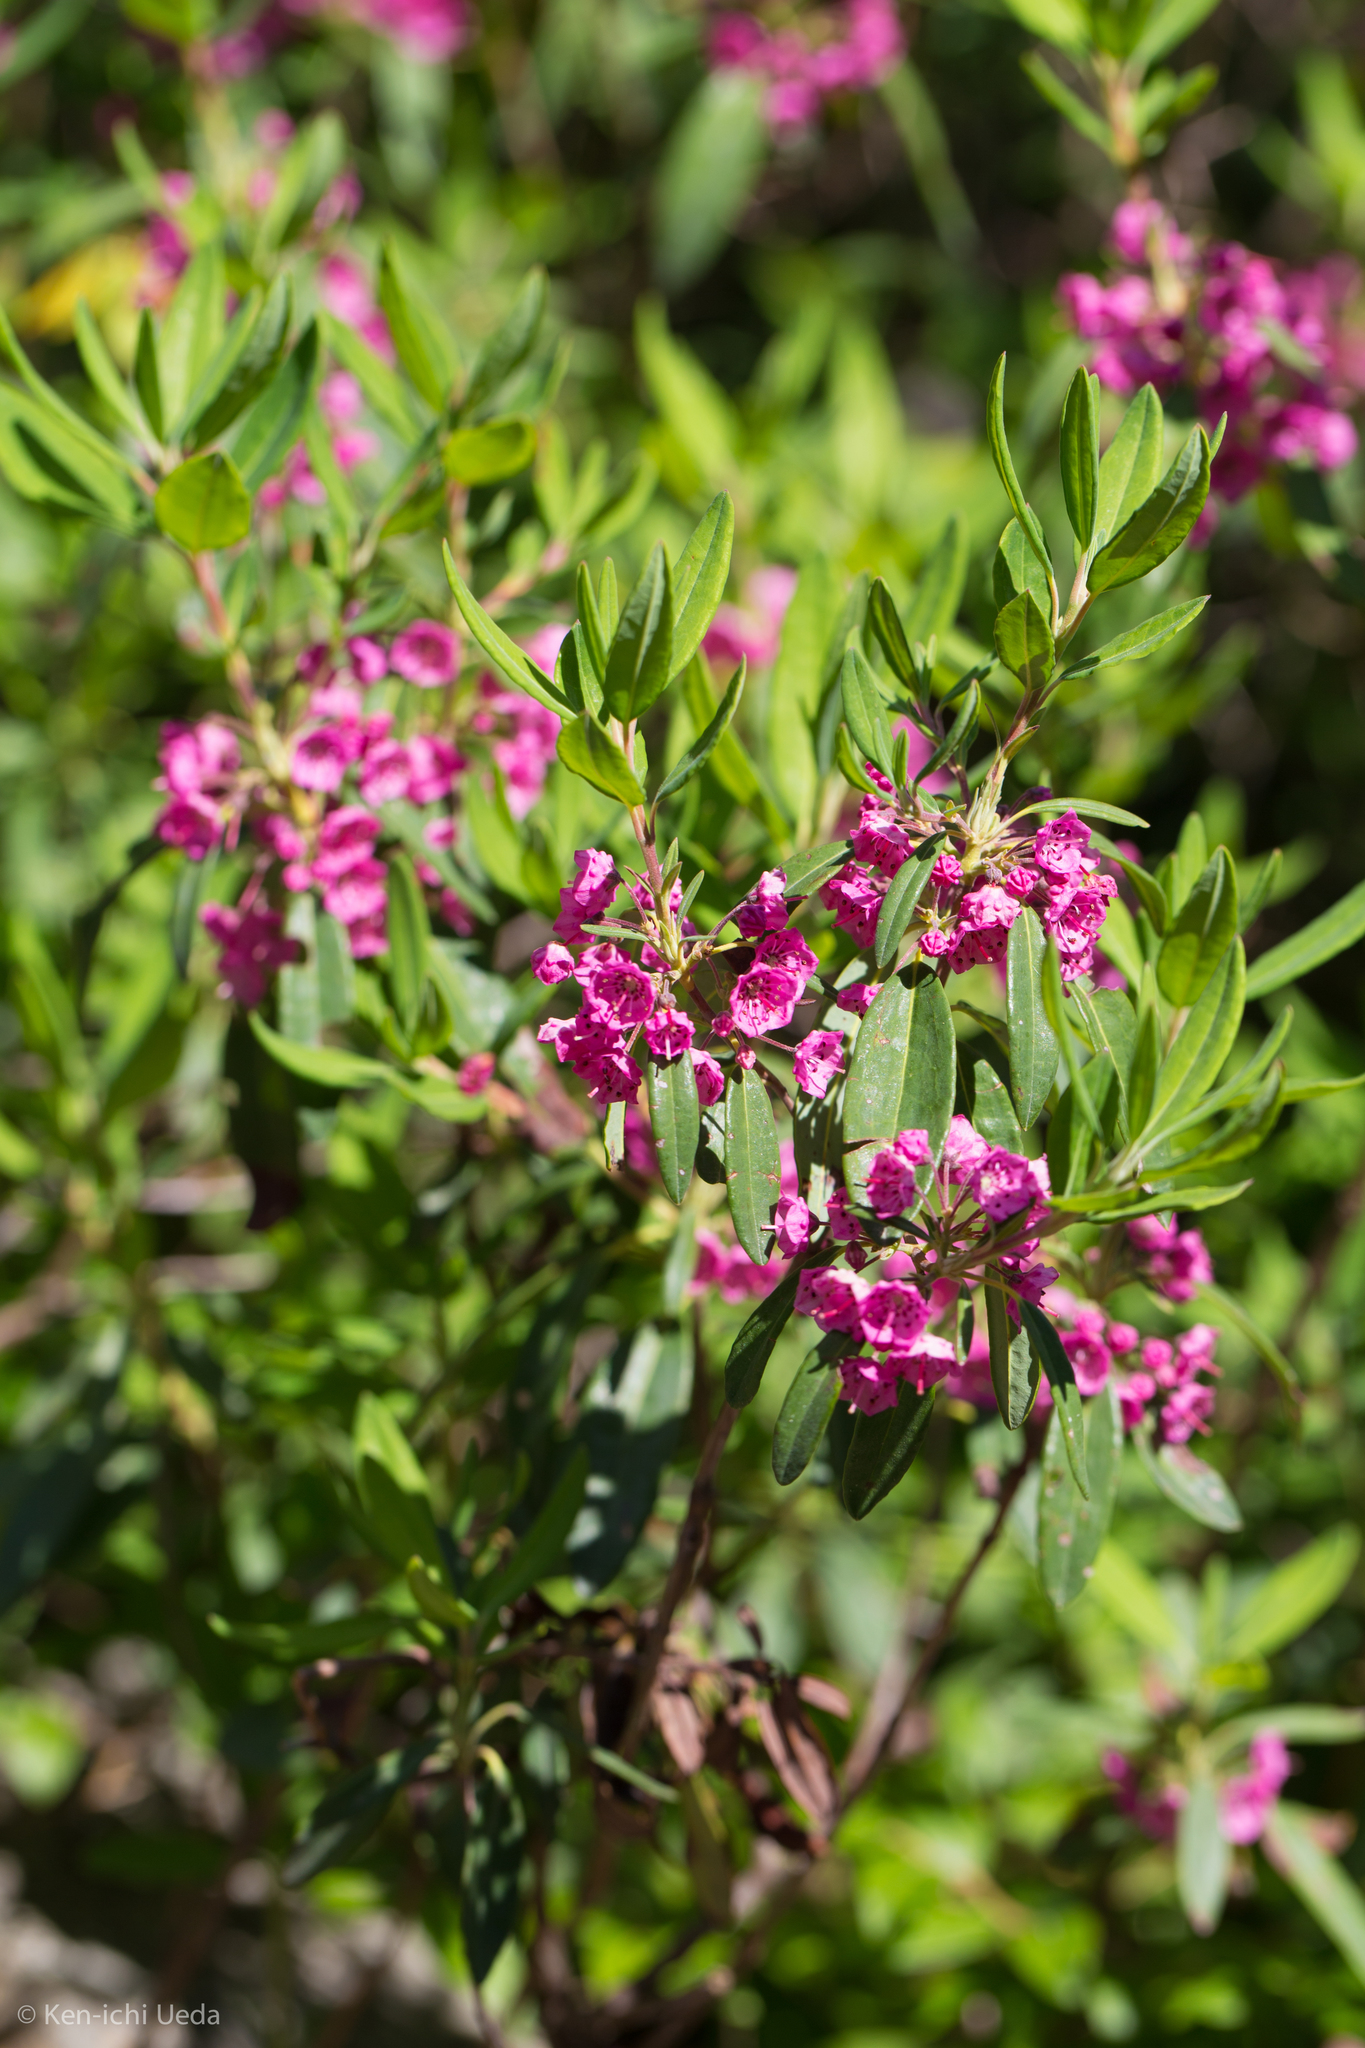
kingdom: Plantae
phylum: Tracheophyta
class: Magnoliopsida
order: Ericales
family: Ericaceae
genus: Kalmia
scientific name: Kalmia angustifolia
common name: Sheep-laurel
